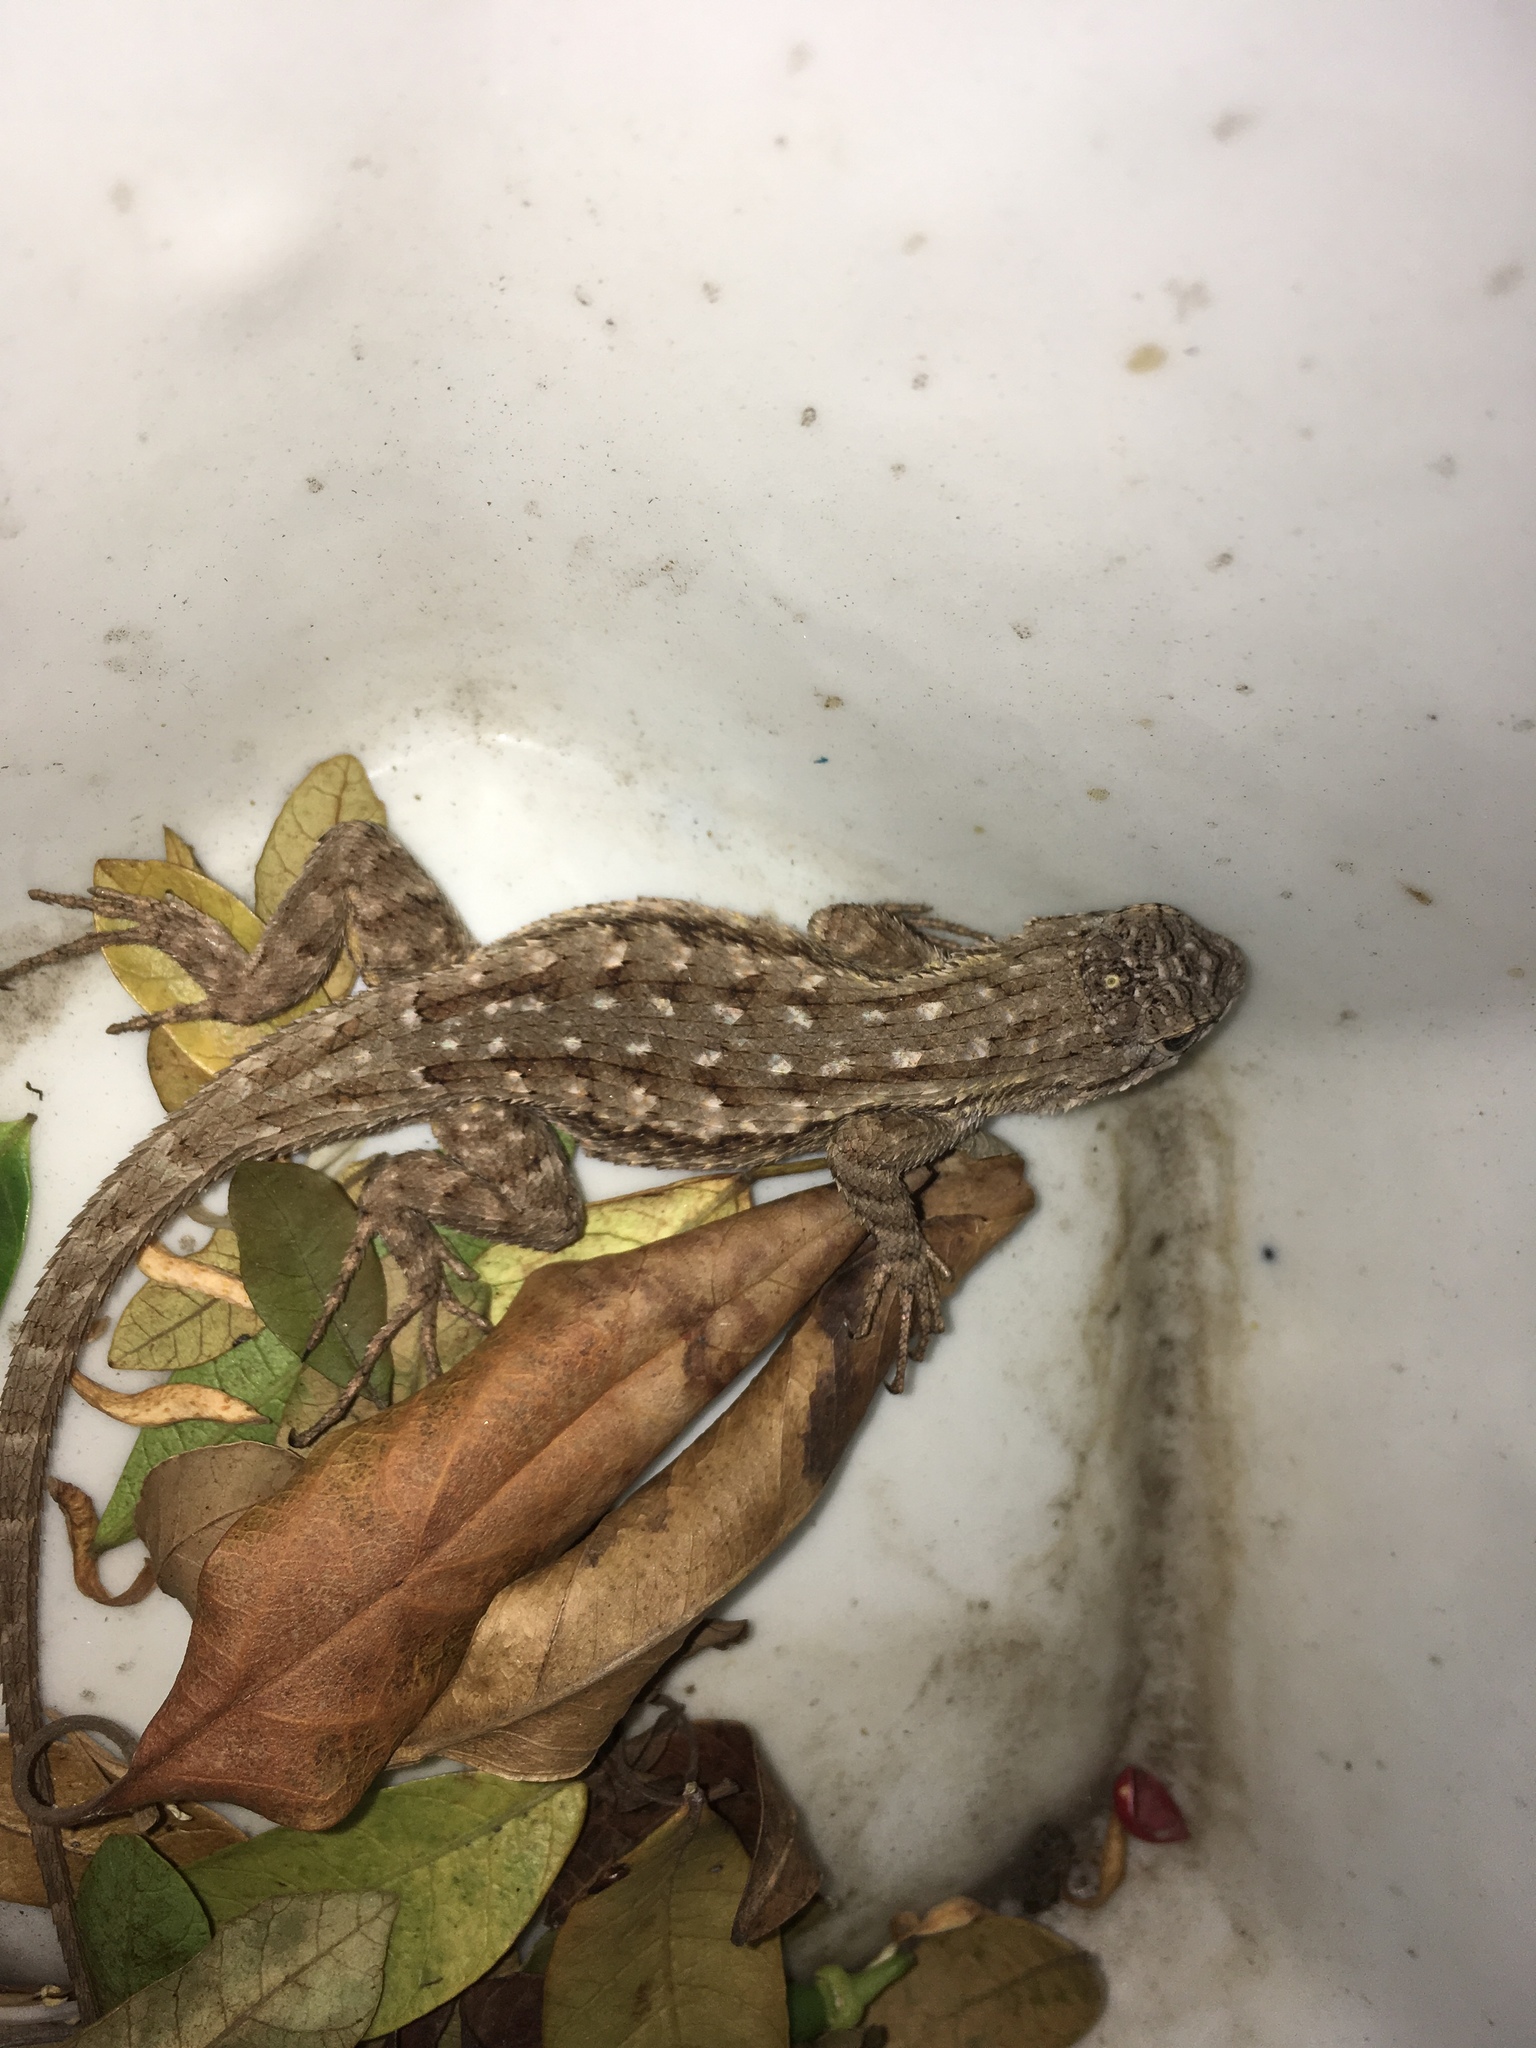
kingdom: Animalia
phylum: Chordata
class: Squamata
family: Phrynosomatidae
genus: Sceloporus
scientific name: Sceloporus occidentalis
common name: Western fence lizard
